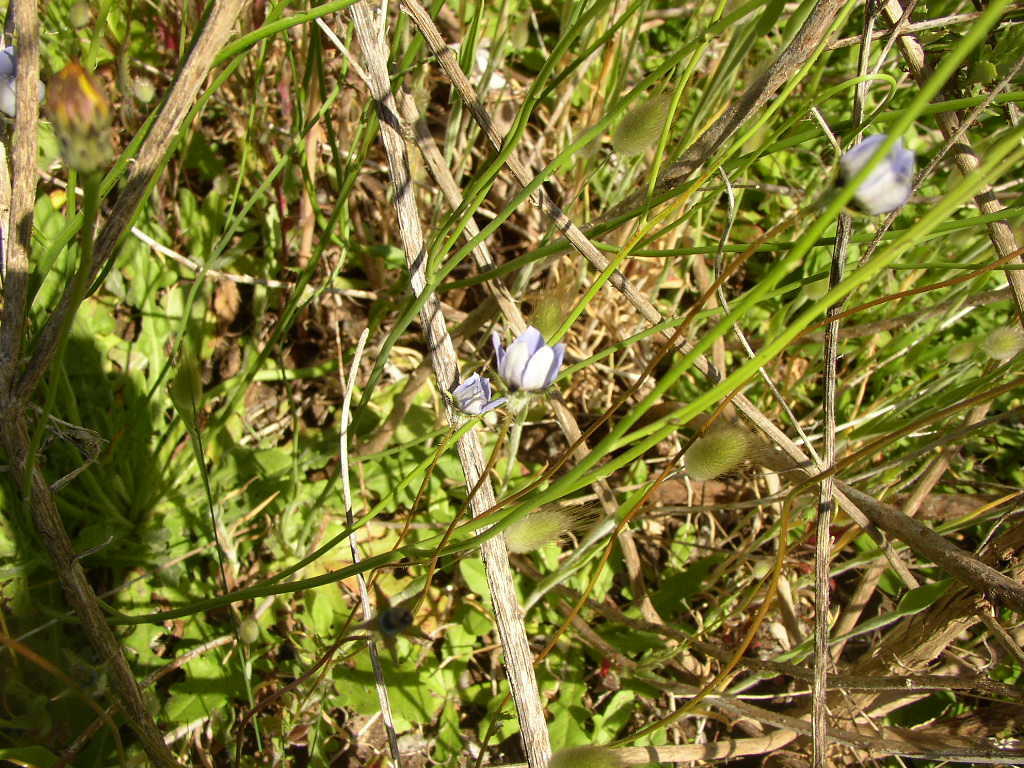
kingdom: Plantae
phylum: Tracheophyta
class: Magnoliopsida
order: Asterales
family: Campanulaceae
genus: Wahlenbergia
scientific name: Wahlenbergia capensis
